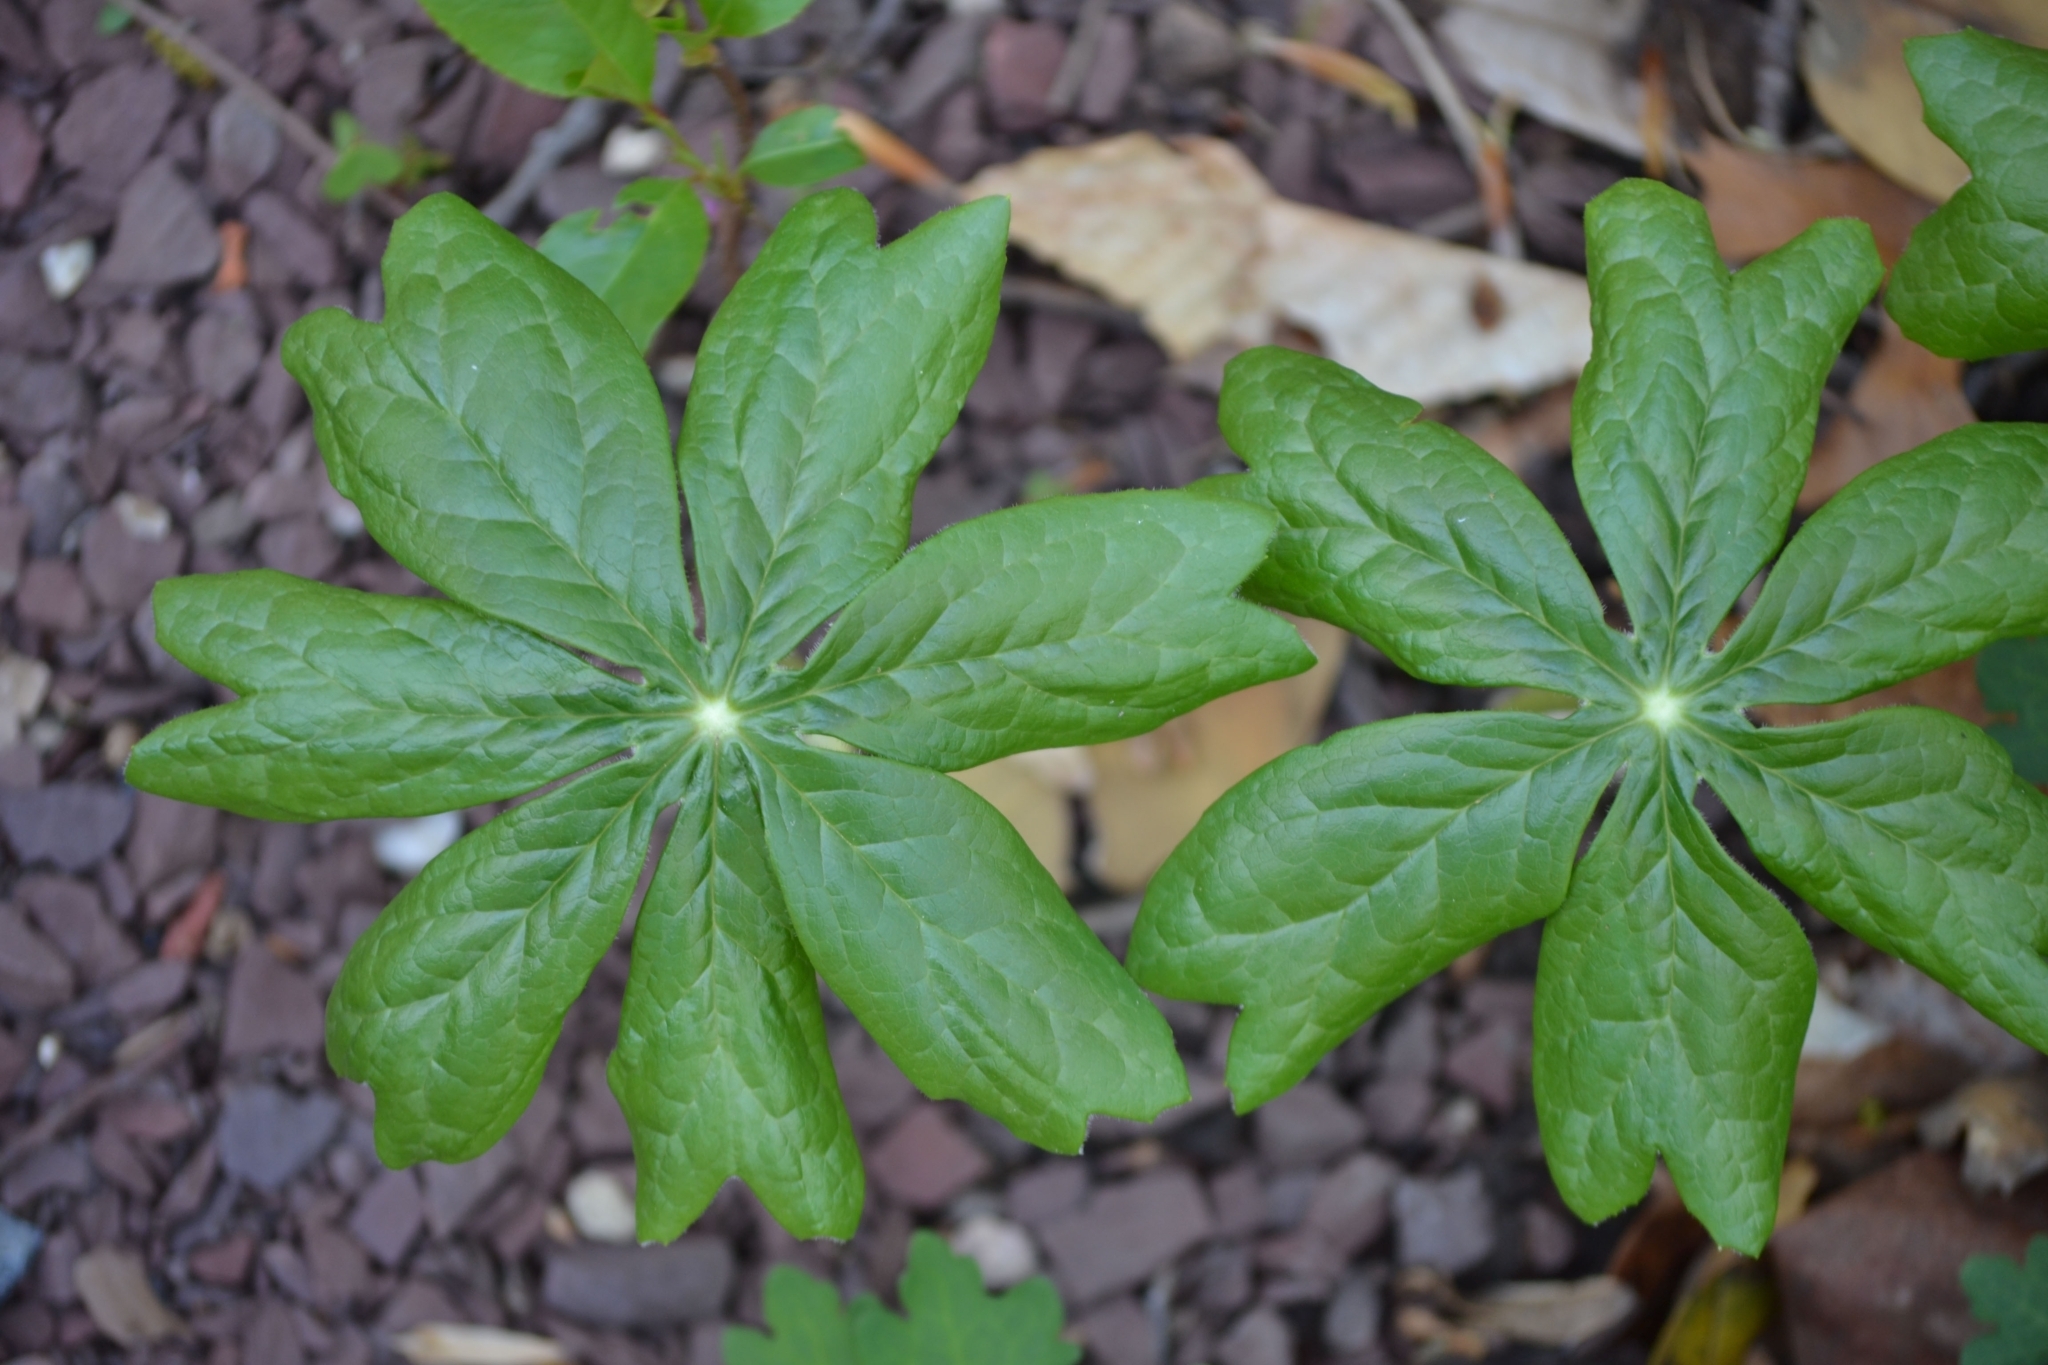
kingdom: Plantae
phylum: Tracheophyta
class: Magnoliopsida
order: Ranunculales
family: Berberidaceae
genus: Podophyllum
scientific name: Podophyllum peltatum
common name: Wild mandrake
